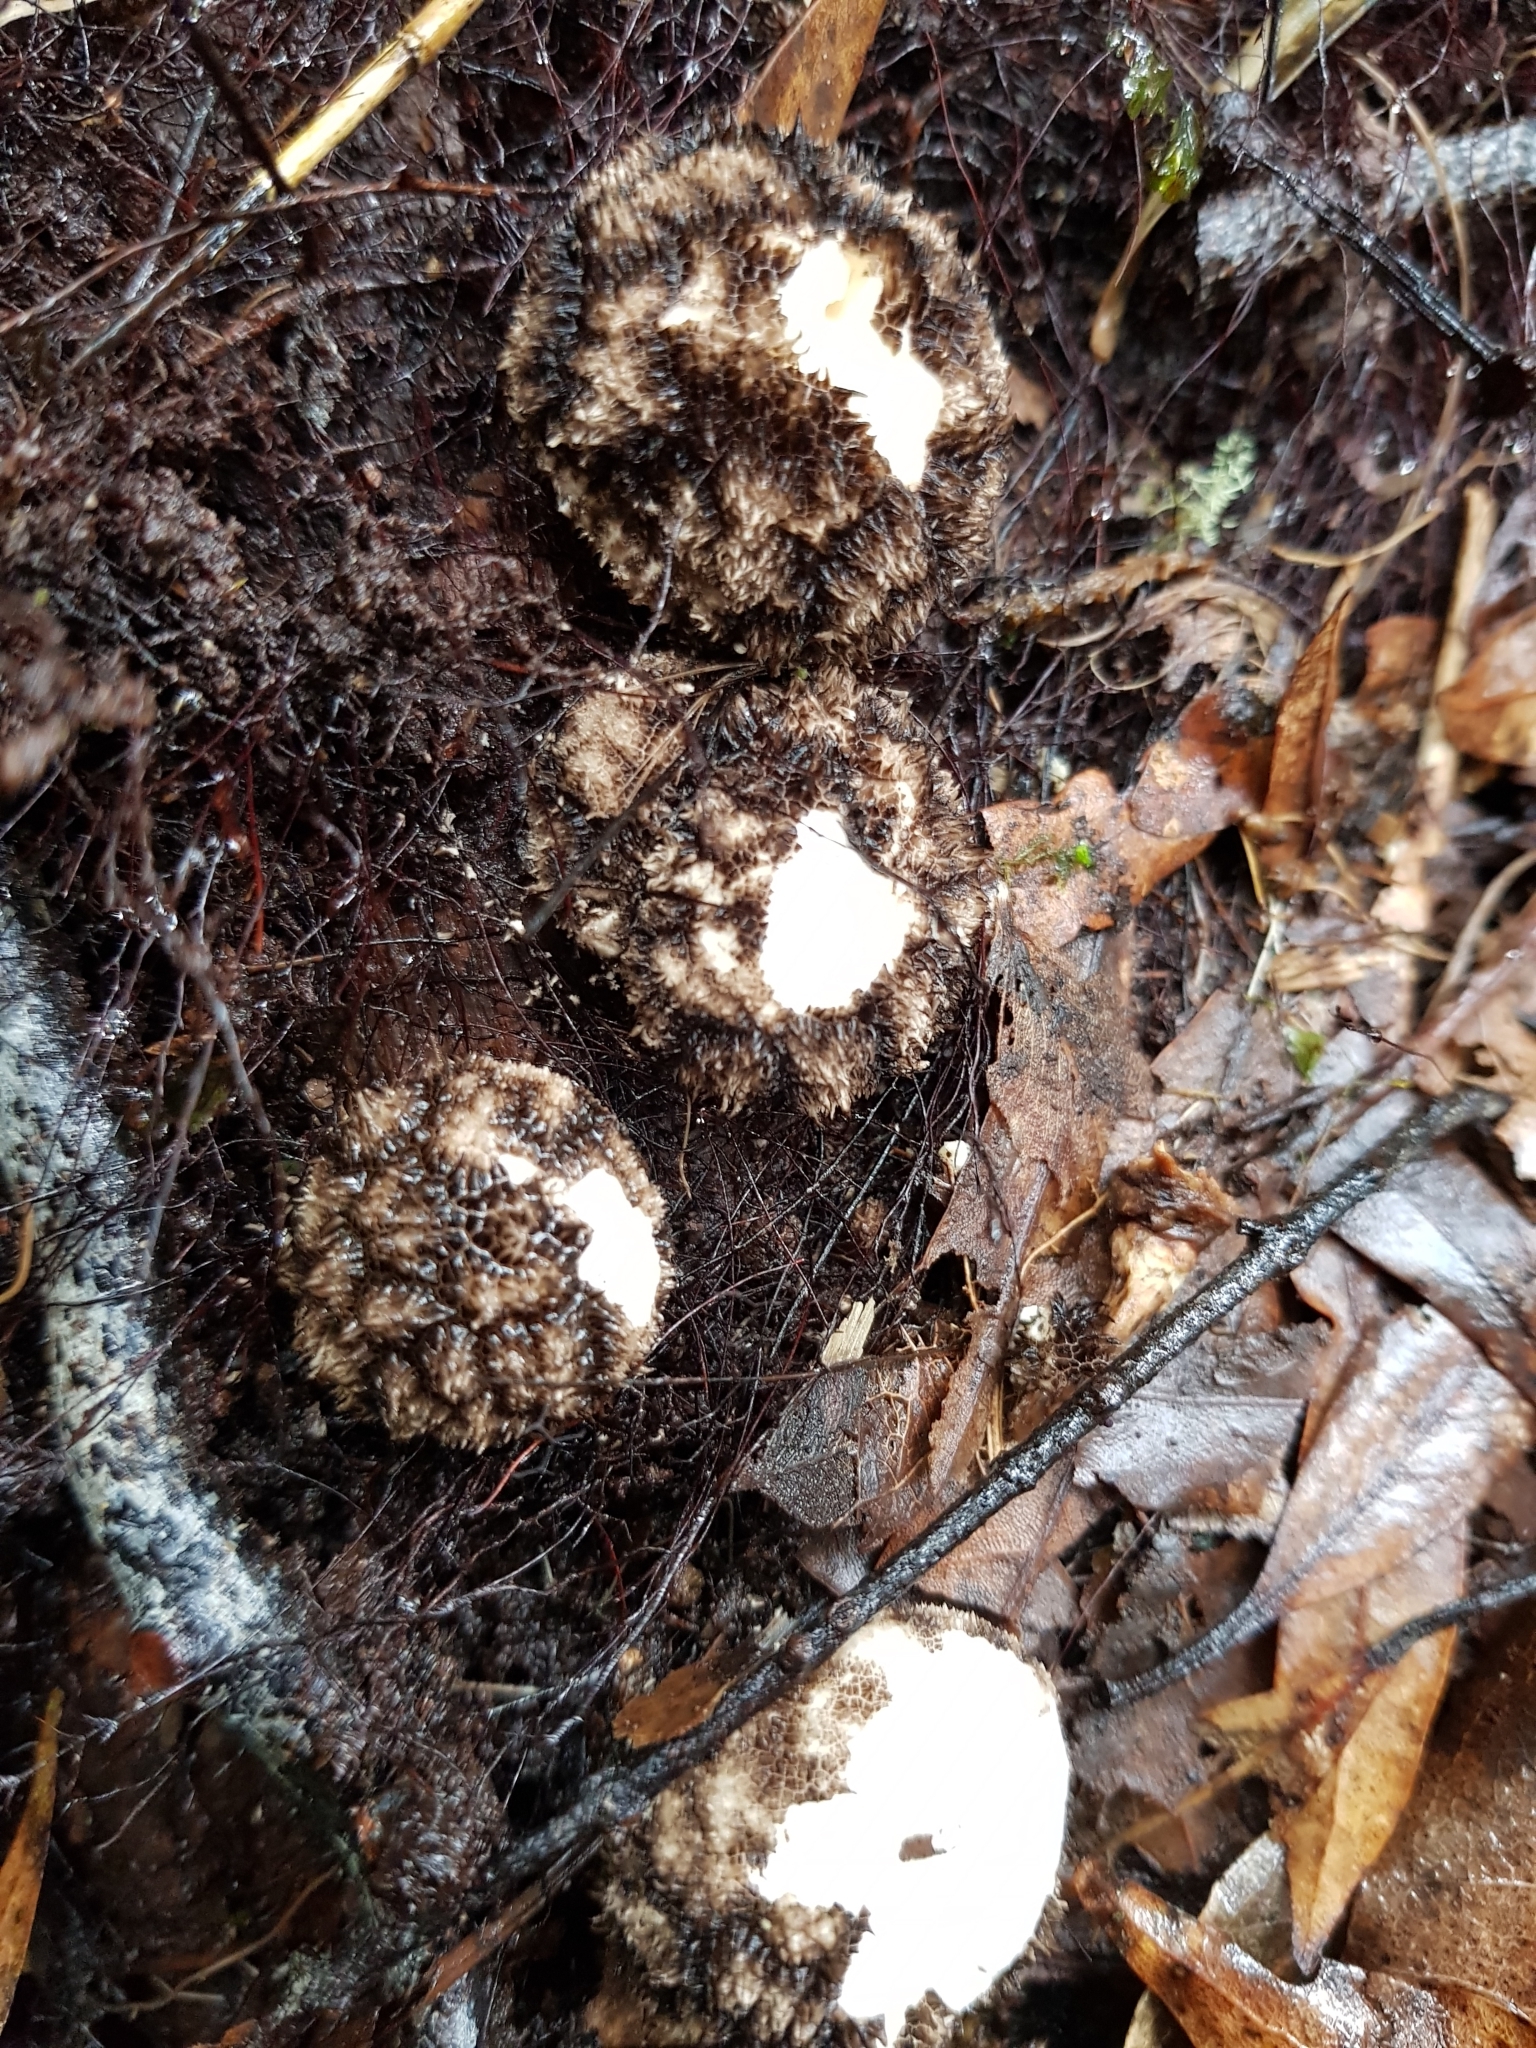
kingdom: Fungi
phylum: Basidiomycota
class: Agaricomycetes
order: Agaricales
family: Lycoperdaceae
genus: Lycoperdon
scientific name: Lycoperdon compactum
